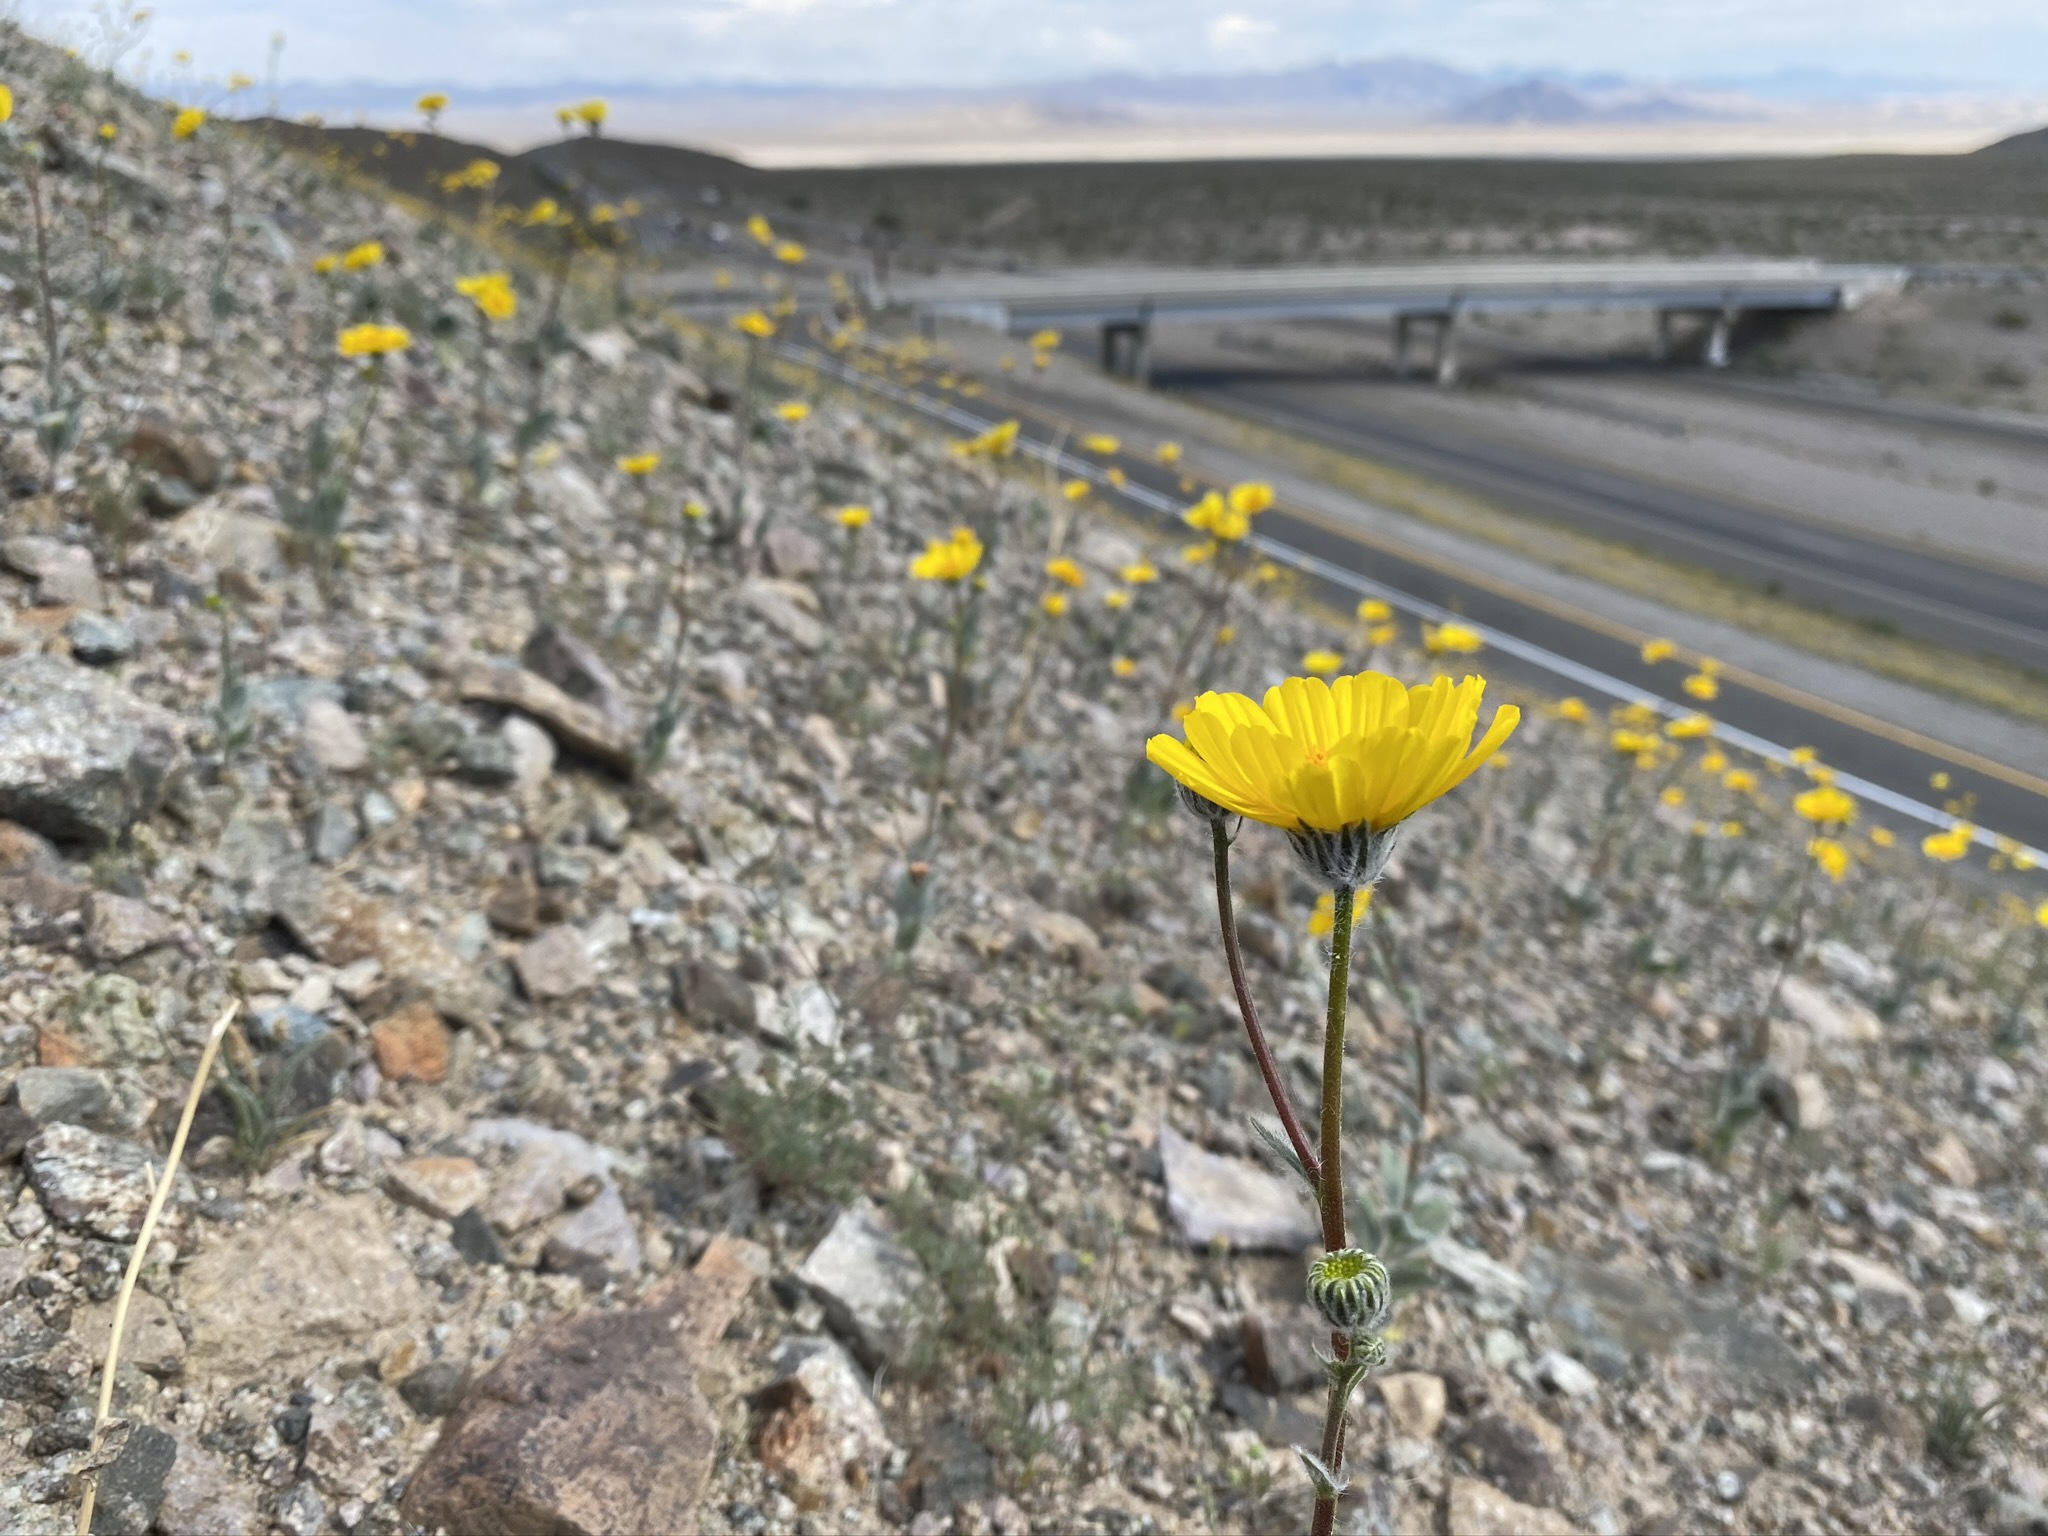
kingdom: Plantae
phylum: Tracheophyta
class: Magnoliopsida
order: Asterales
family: Asteraceae
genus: Geraea
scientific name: Geraea canescens
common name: Desert-gold
